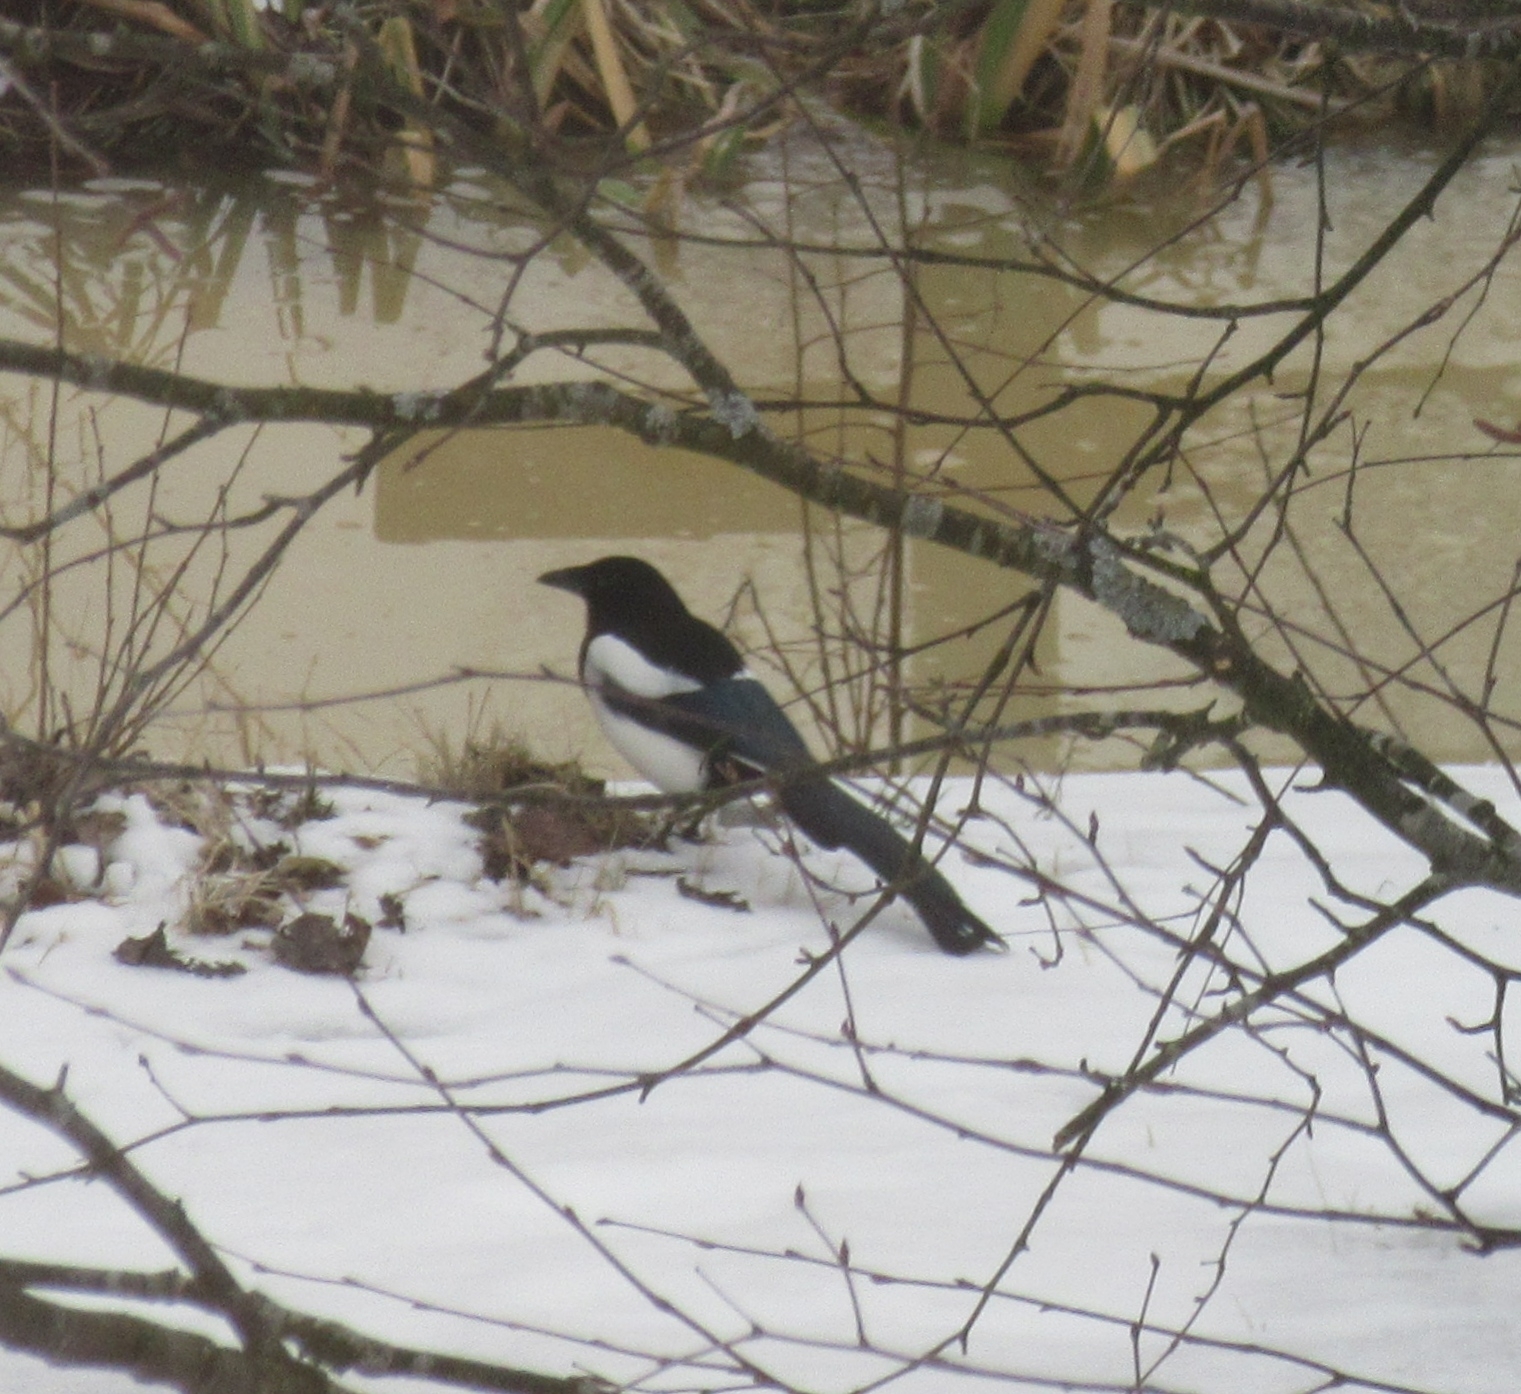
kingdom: Animalia
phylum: Chordata
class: Aves
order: Passeriformes
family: Corvidae
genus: Pica
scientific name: Pica pica
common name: Eurasian magpie
